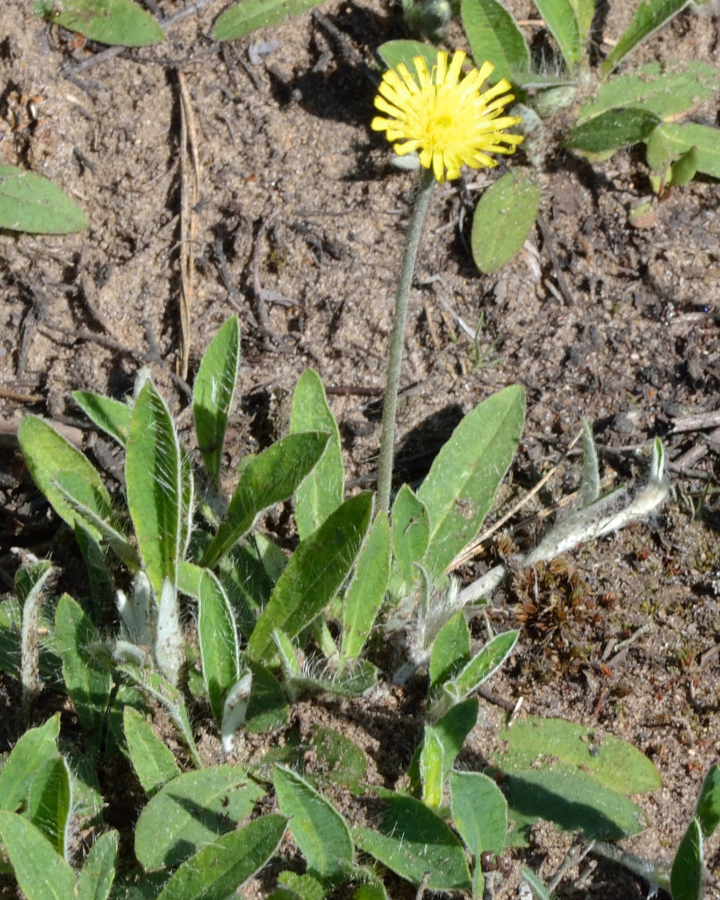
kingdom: Plantae
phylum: Tracheophyta
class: Magnoliopsida
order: Asterales
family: Asteraceae
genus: Pilosella
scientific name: Pilosella officinarum
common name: Mouse-ear hawkweed
